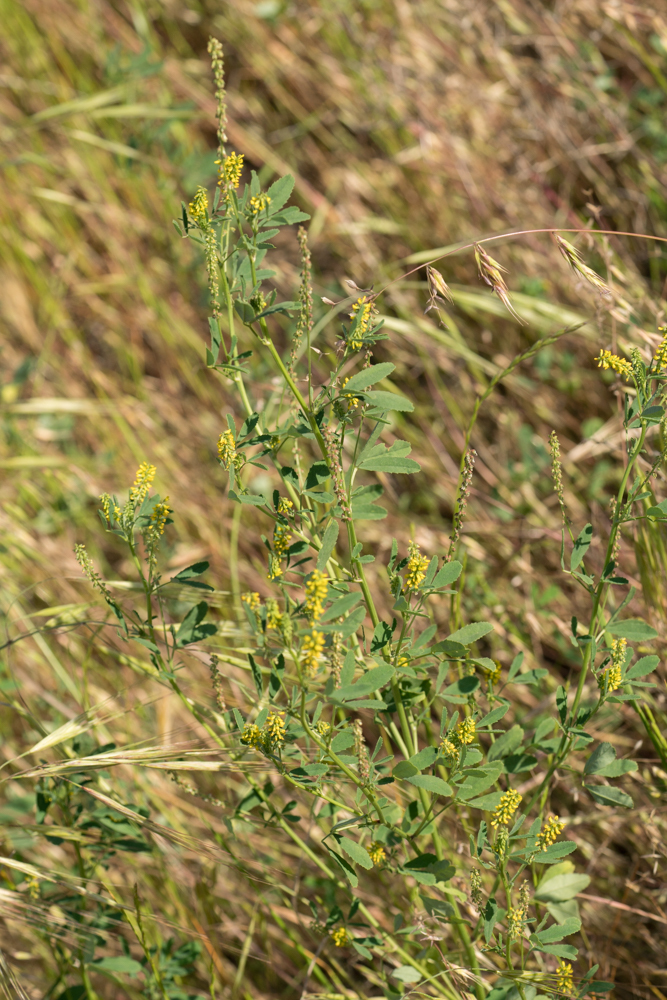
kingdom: Plantae
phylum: Tracheophyta
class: Magnoliopsida
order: Fabales
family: Fabaceae
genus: Melilotus
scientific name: Melilotus indicus
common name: Small melilot
